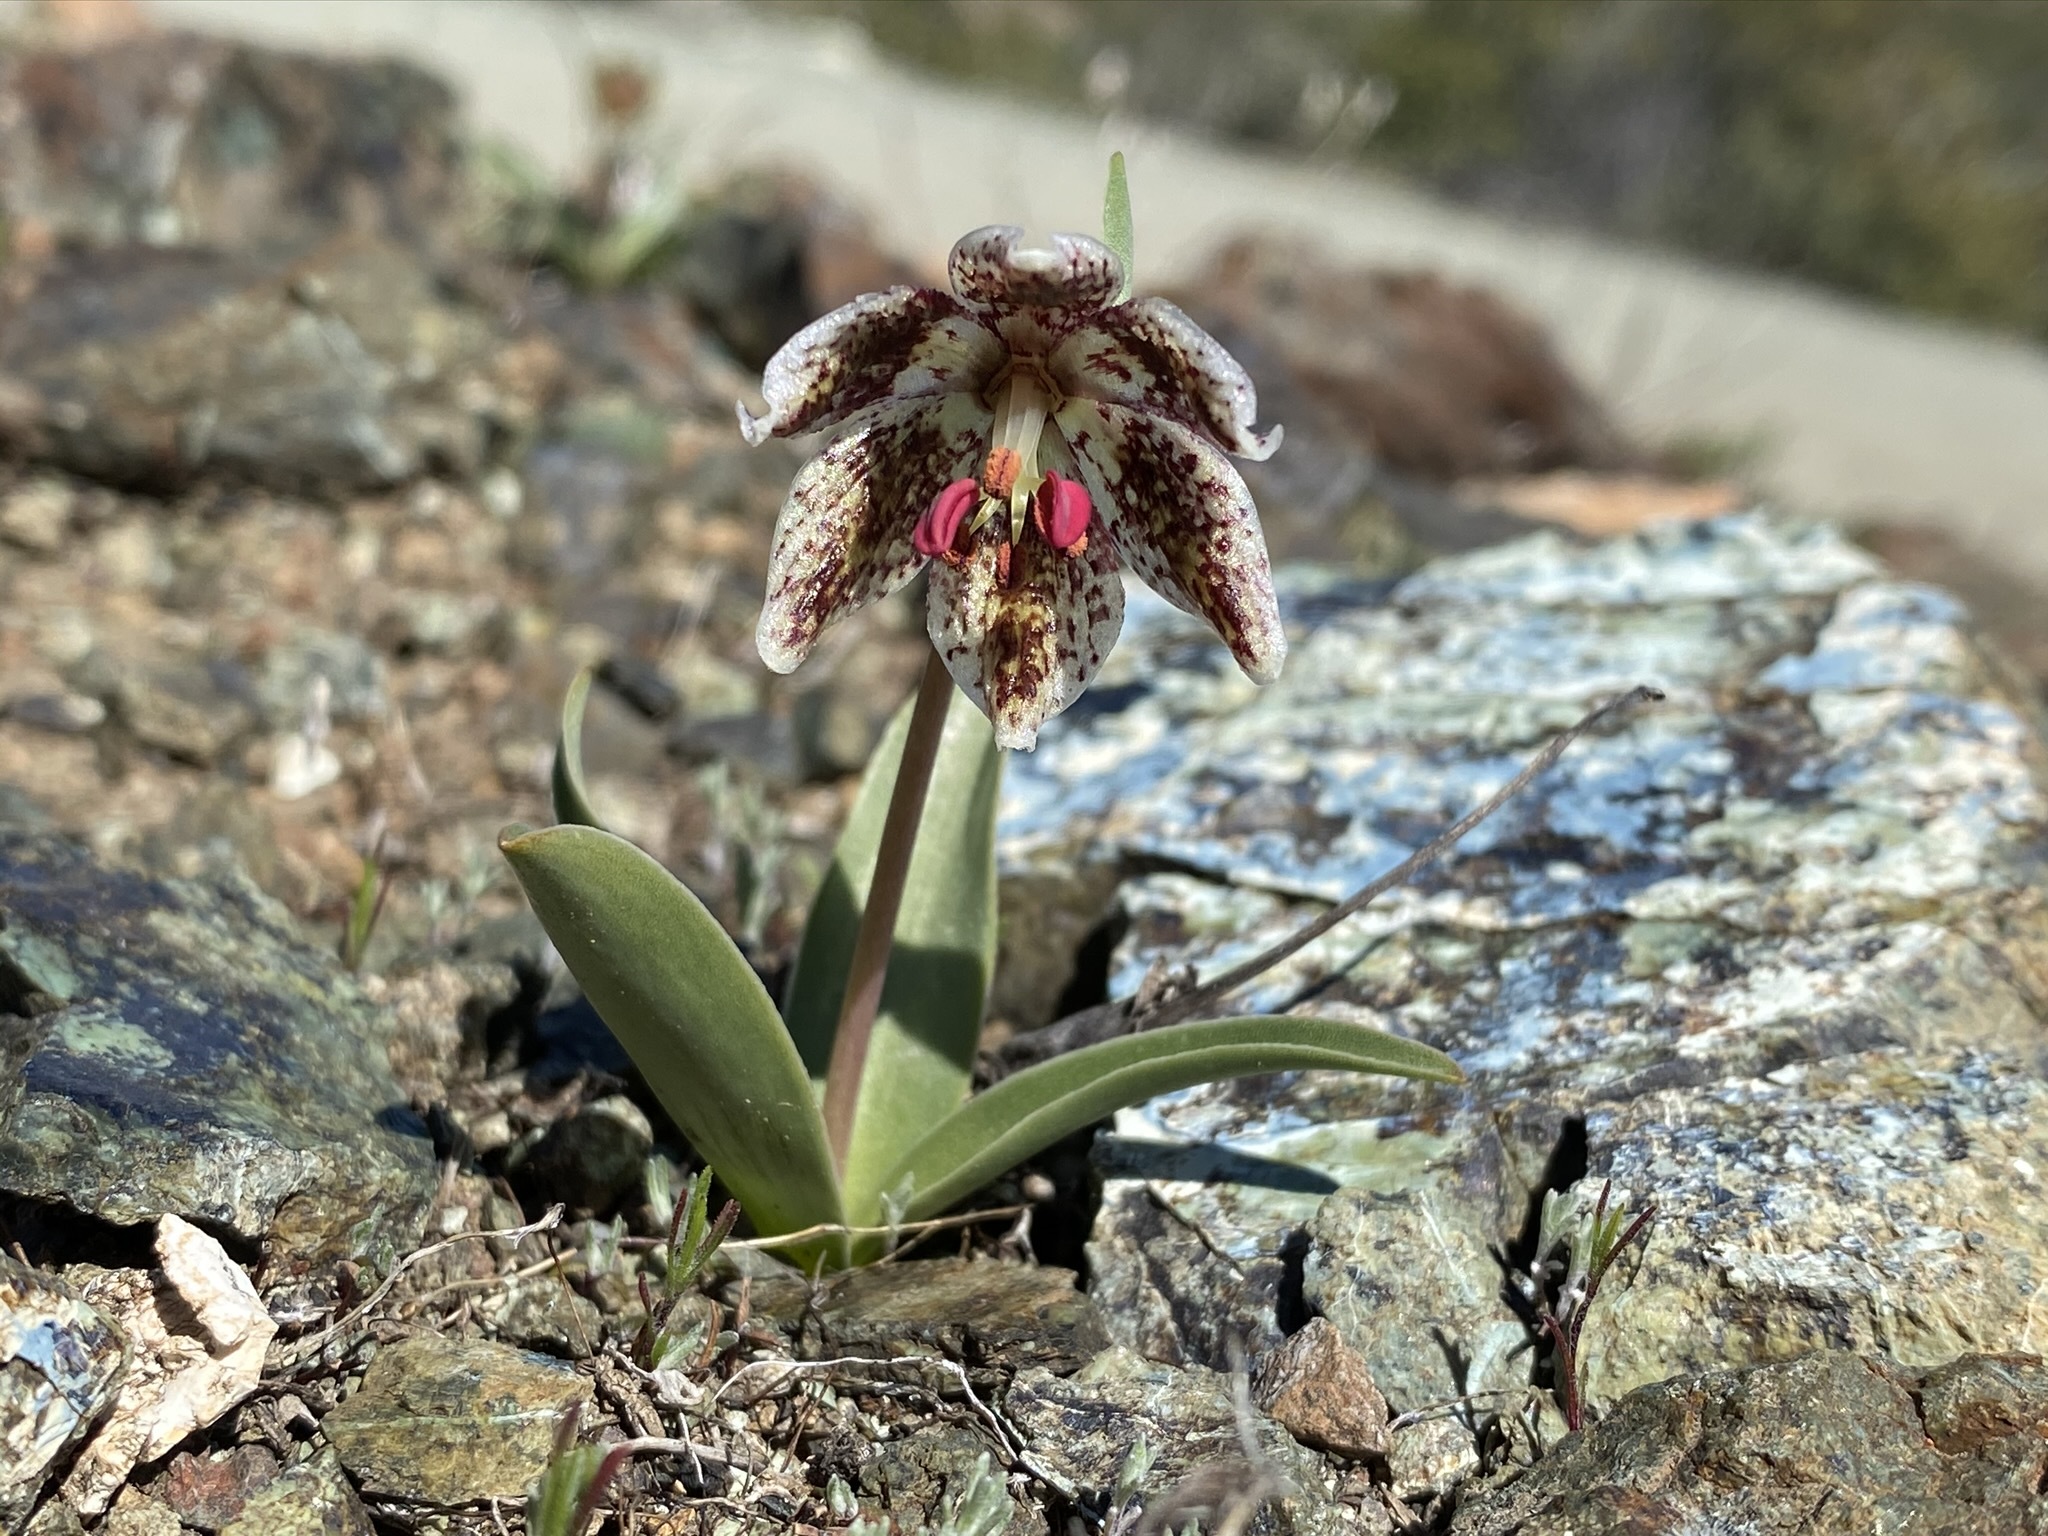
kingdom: Plantae
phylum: Tracheophyta
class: Liliopsida
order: Liliales
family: Liliaceae
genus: Fritillaria
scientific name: Fritillaria purdyi
